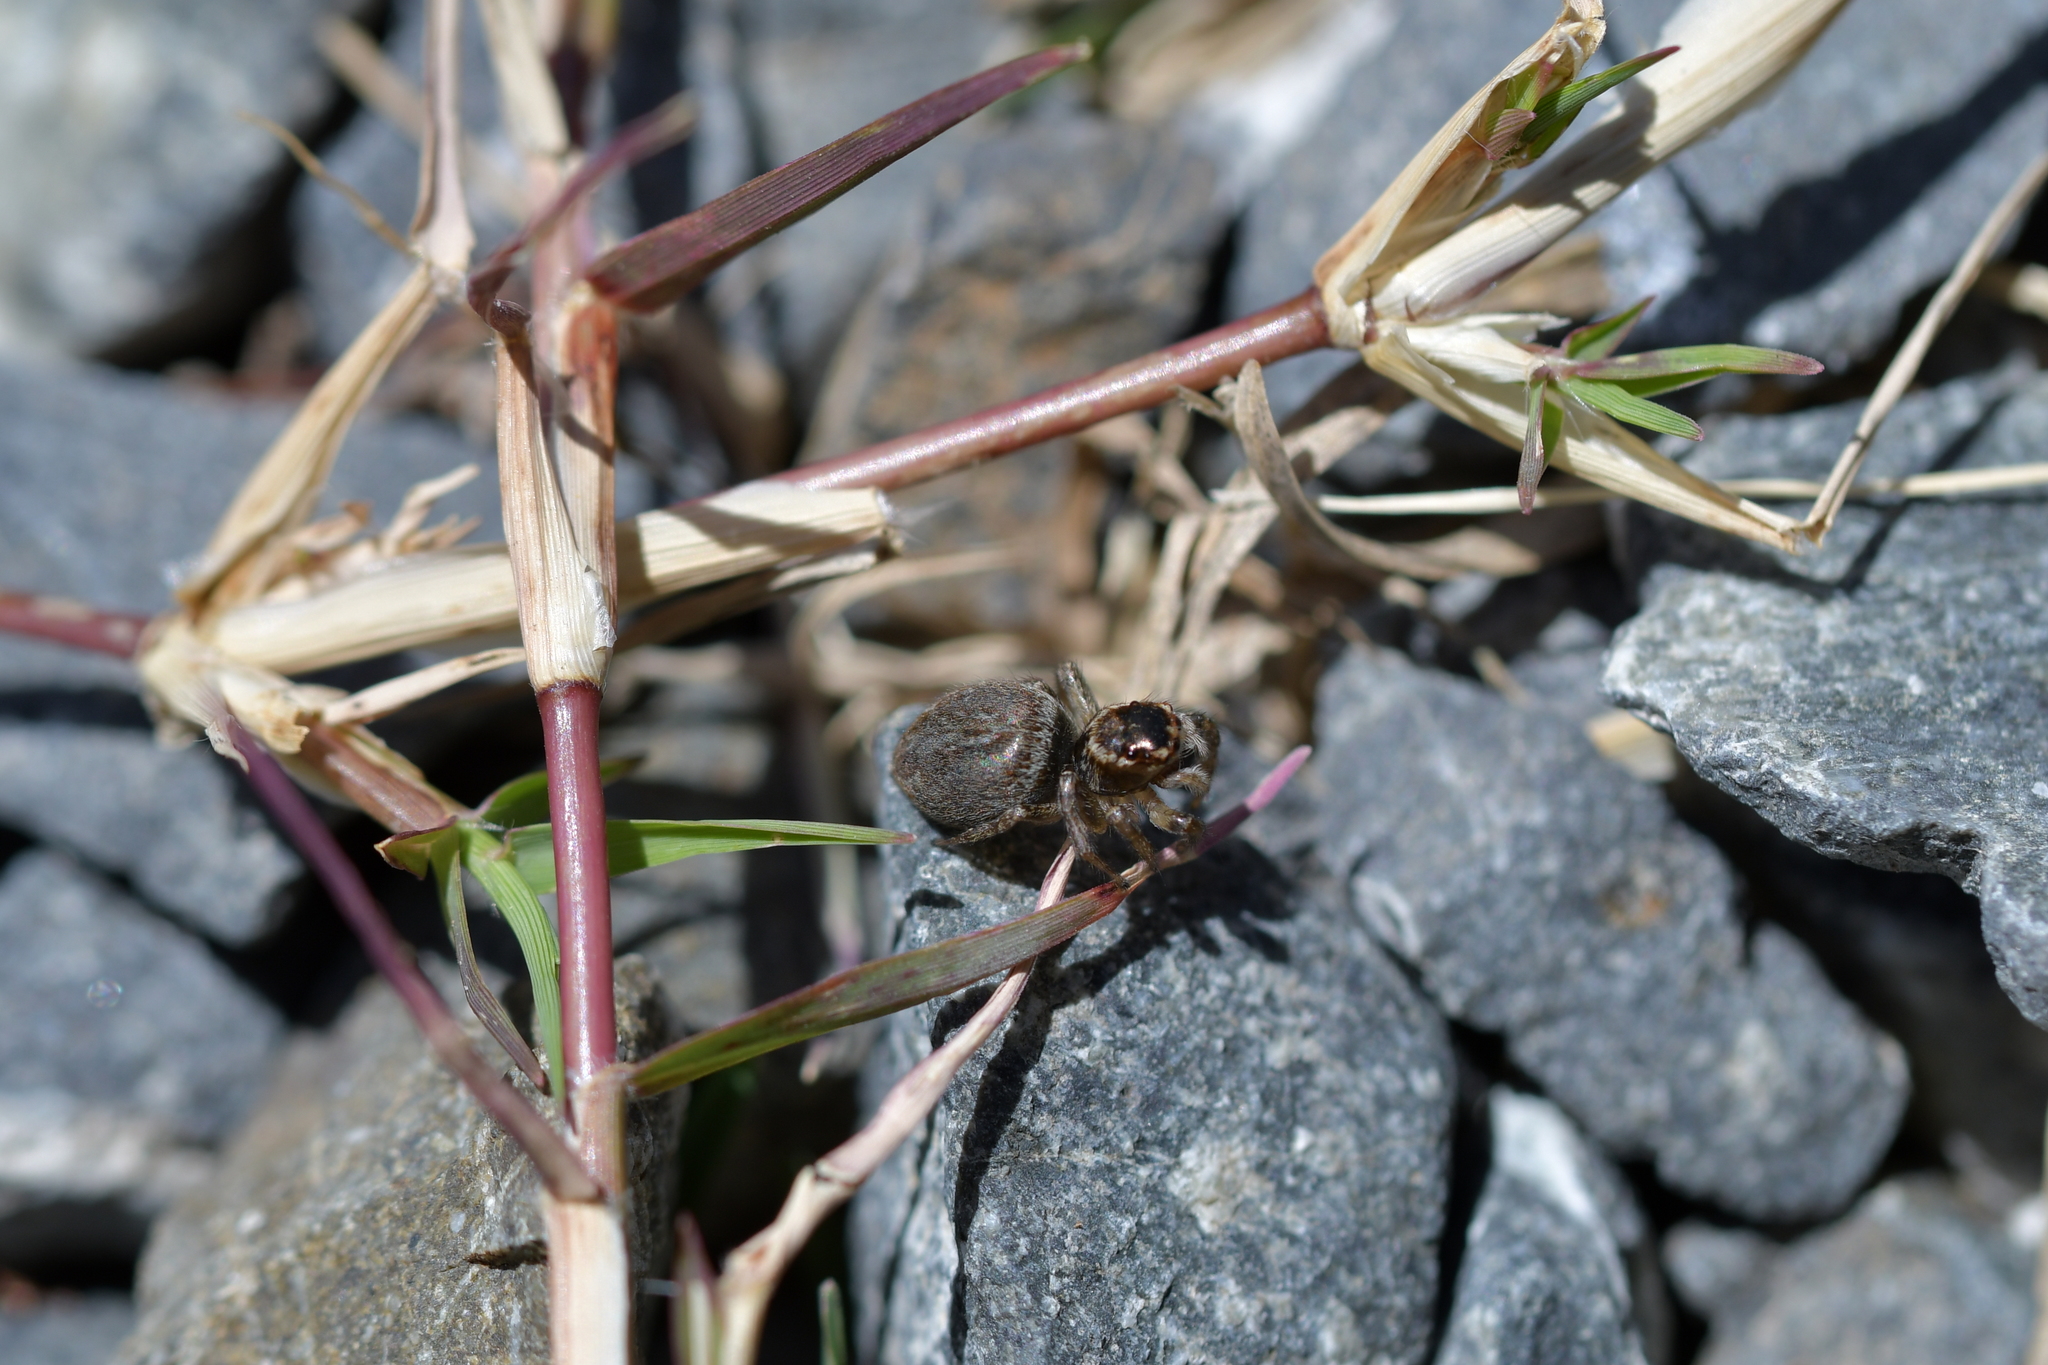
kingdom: Animalia
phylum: Arthropoda
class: Arachnida
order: Araneae
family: Salticidae
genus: Maratus
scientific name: Maratus griseus
